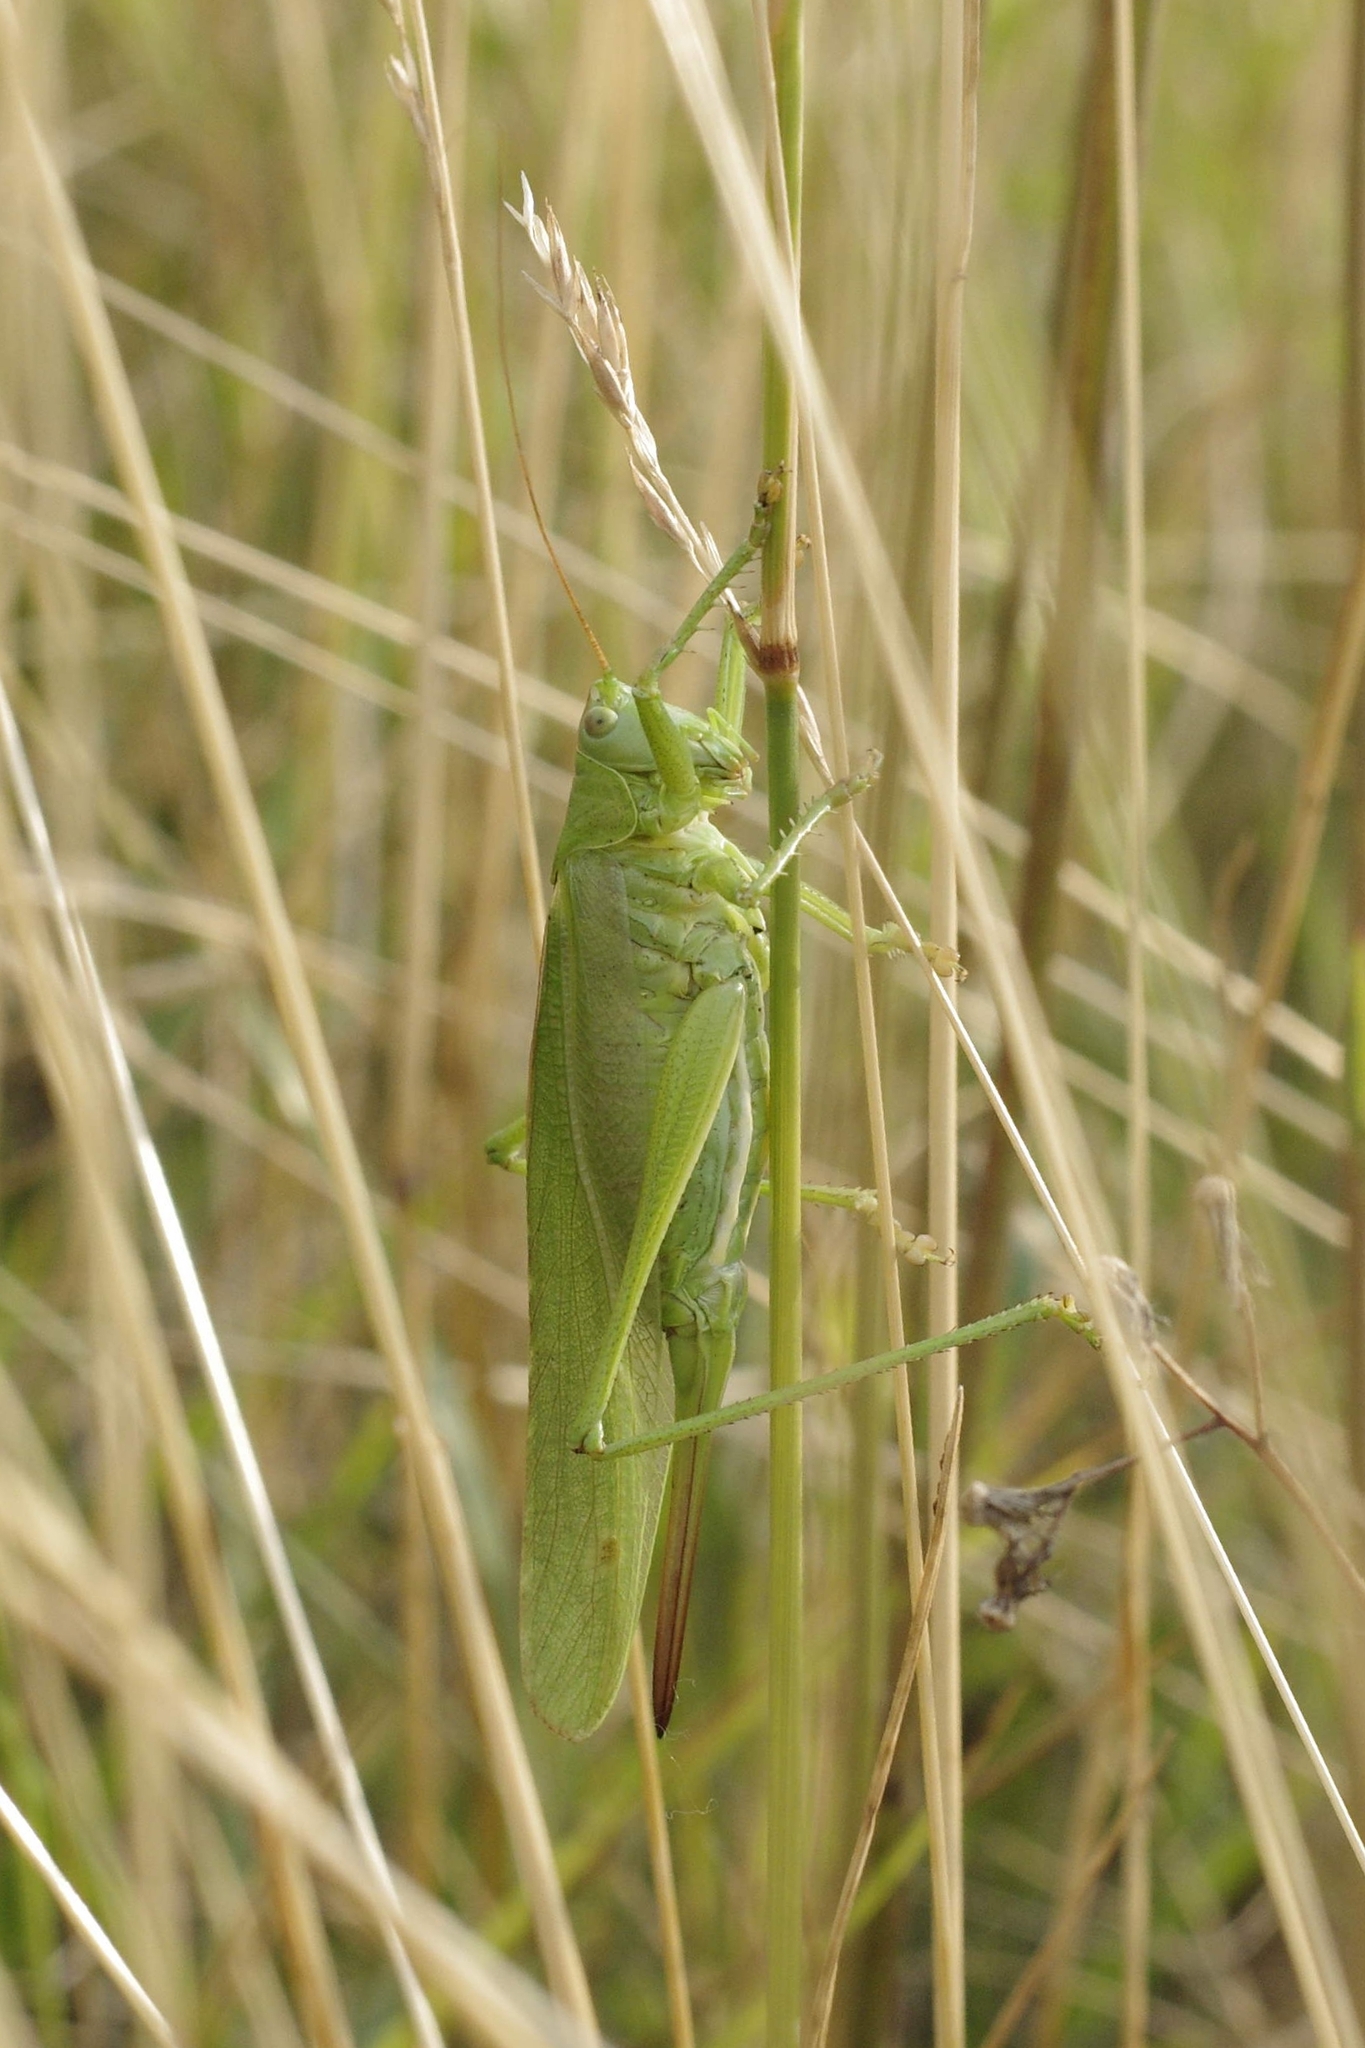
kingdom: Animalia
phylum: Arthropoda
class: Insecta
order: Orthoptera
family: Tettigoniidae
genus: Tettigonia
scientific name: Tettigonia viridissima
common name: Great green bush-cricket
